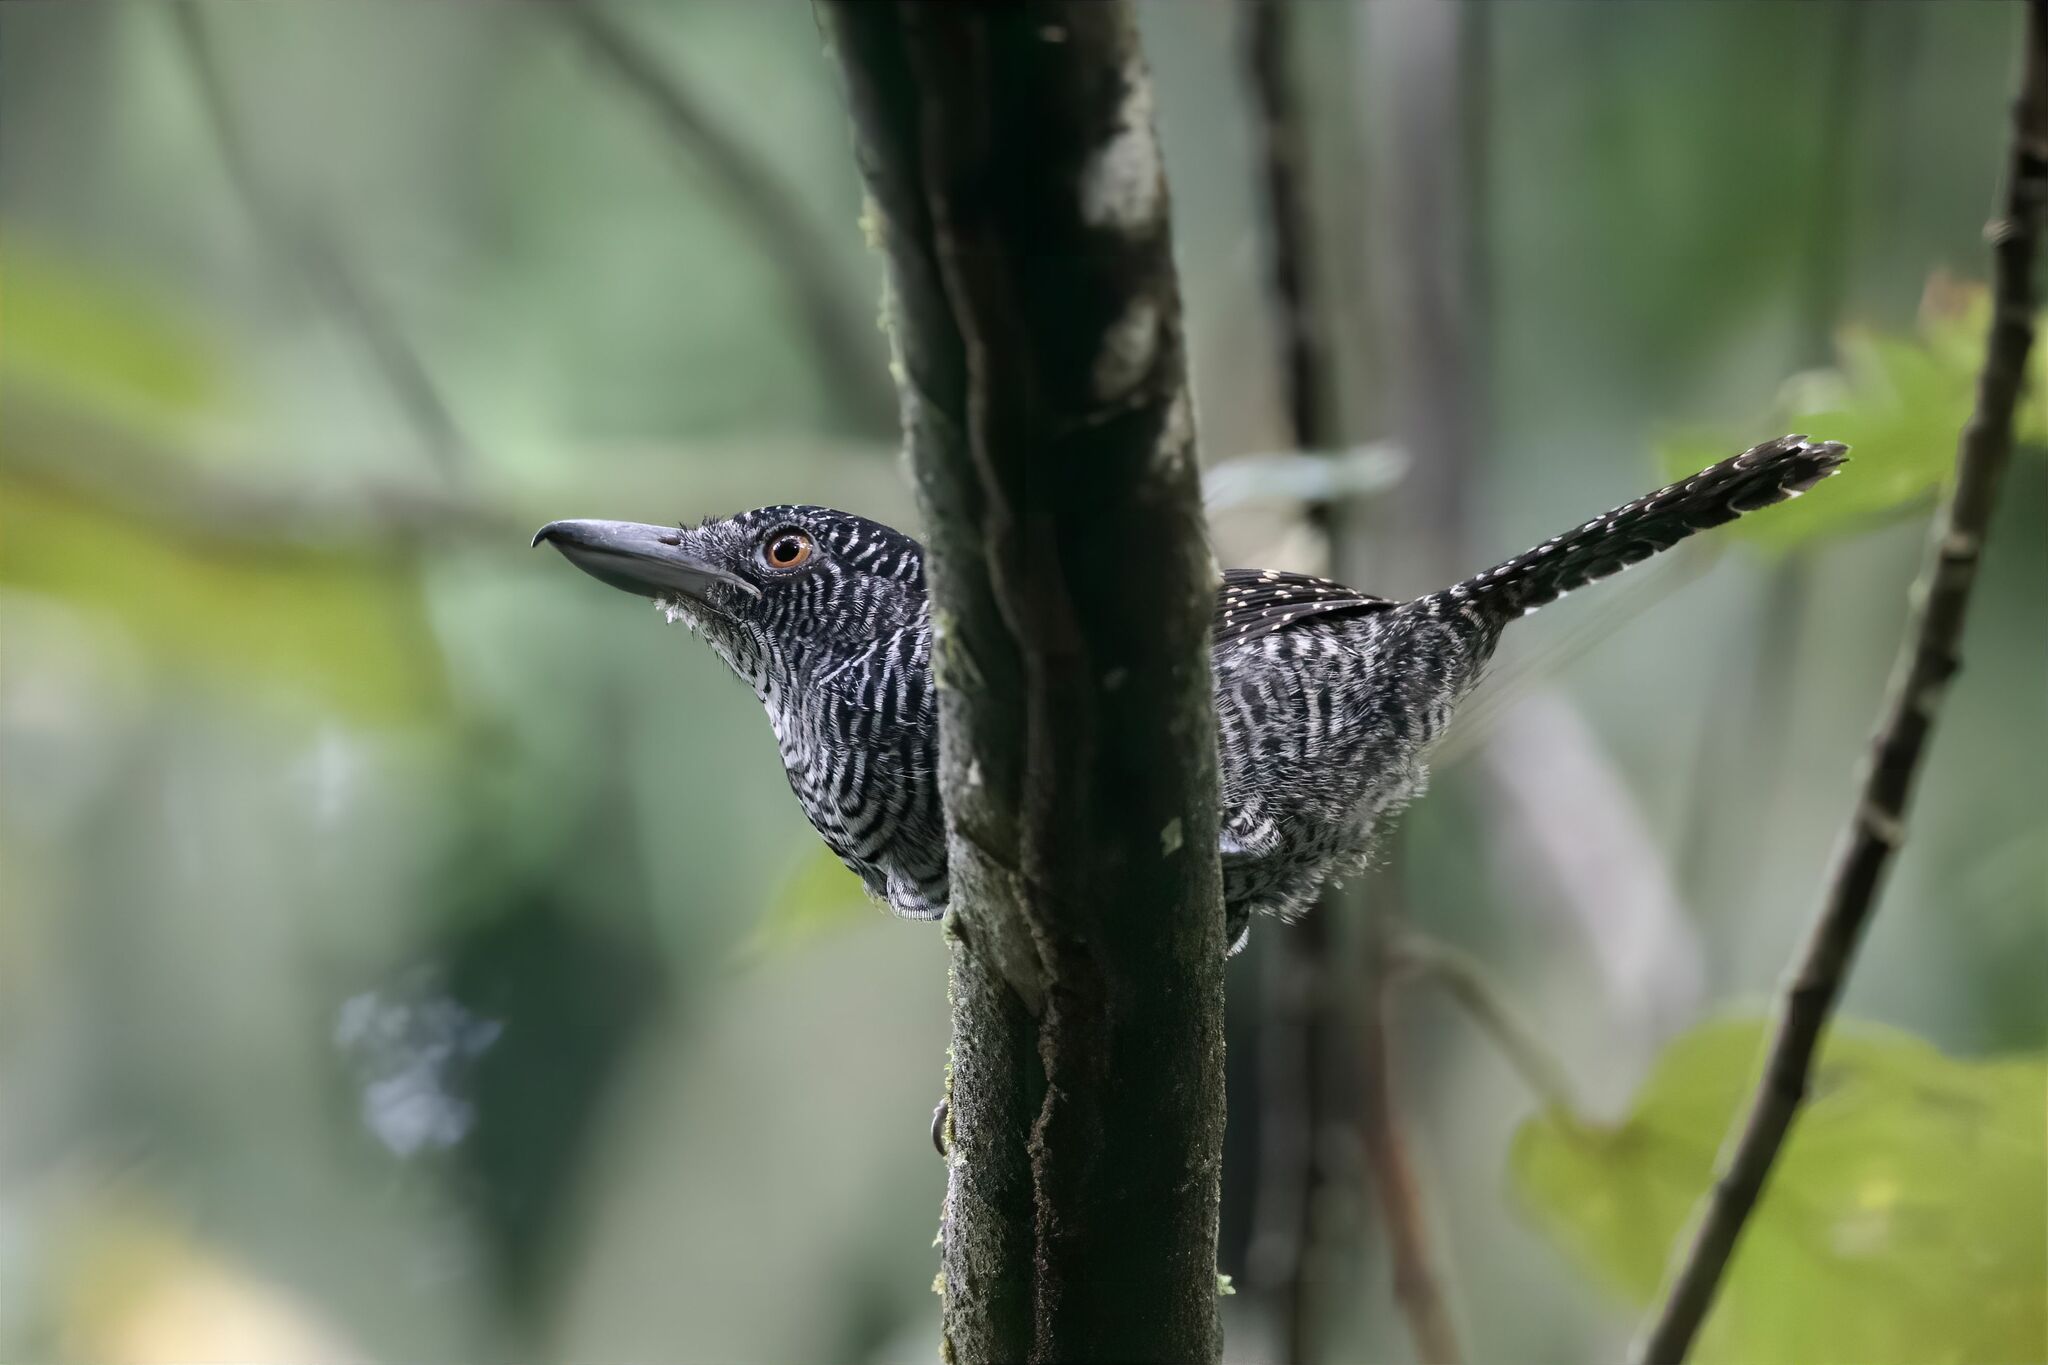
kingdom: Animalia
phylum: Chordata
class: Aves
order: Passeriformes
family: Thamnophilidae
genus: Cymbilaimus
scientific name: Cymbilaimus lineatus
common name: Fasciated antshrike
